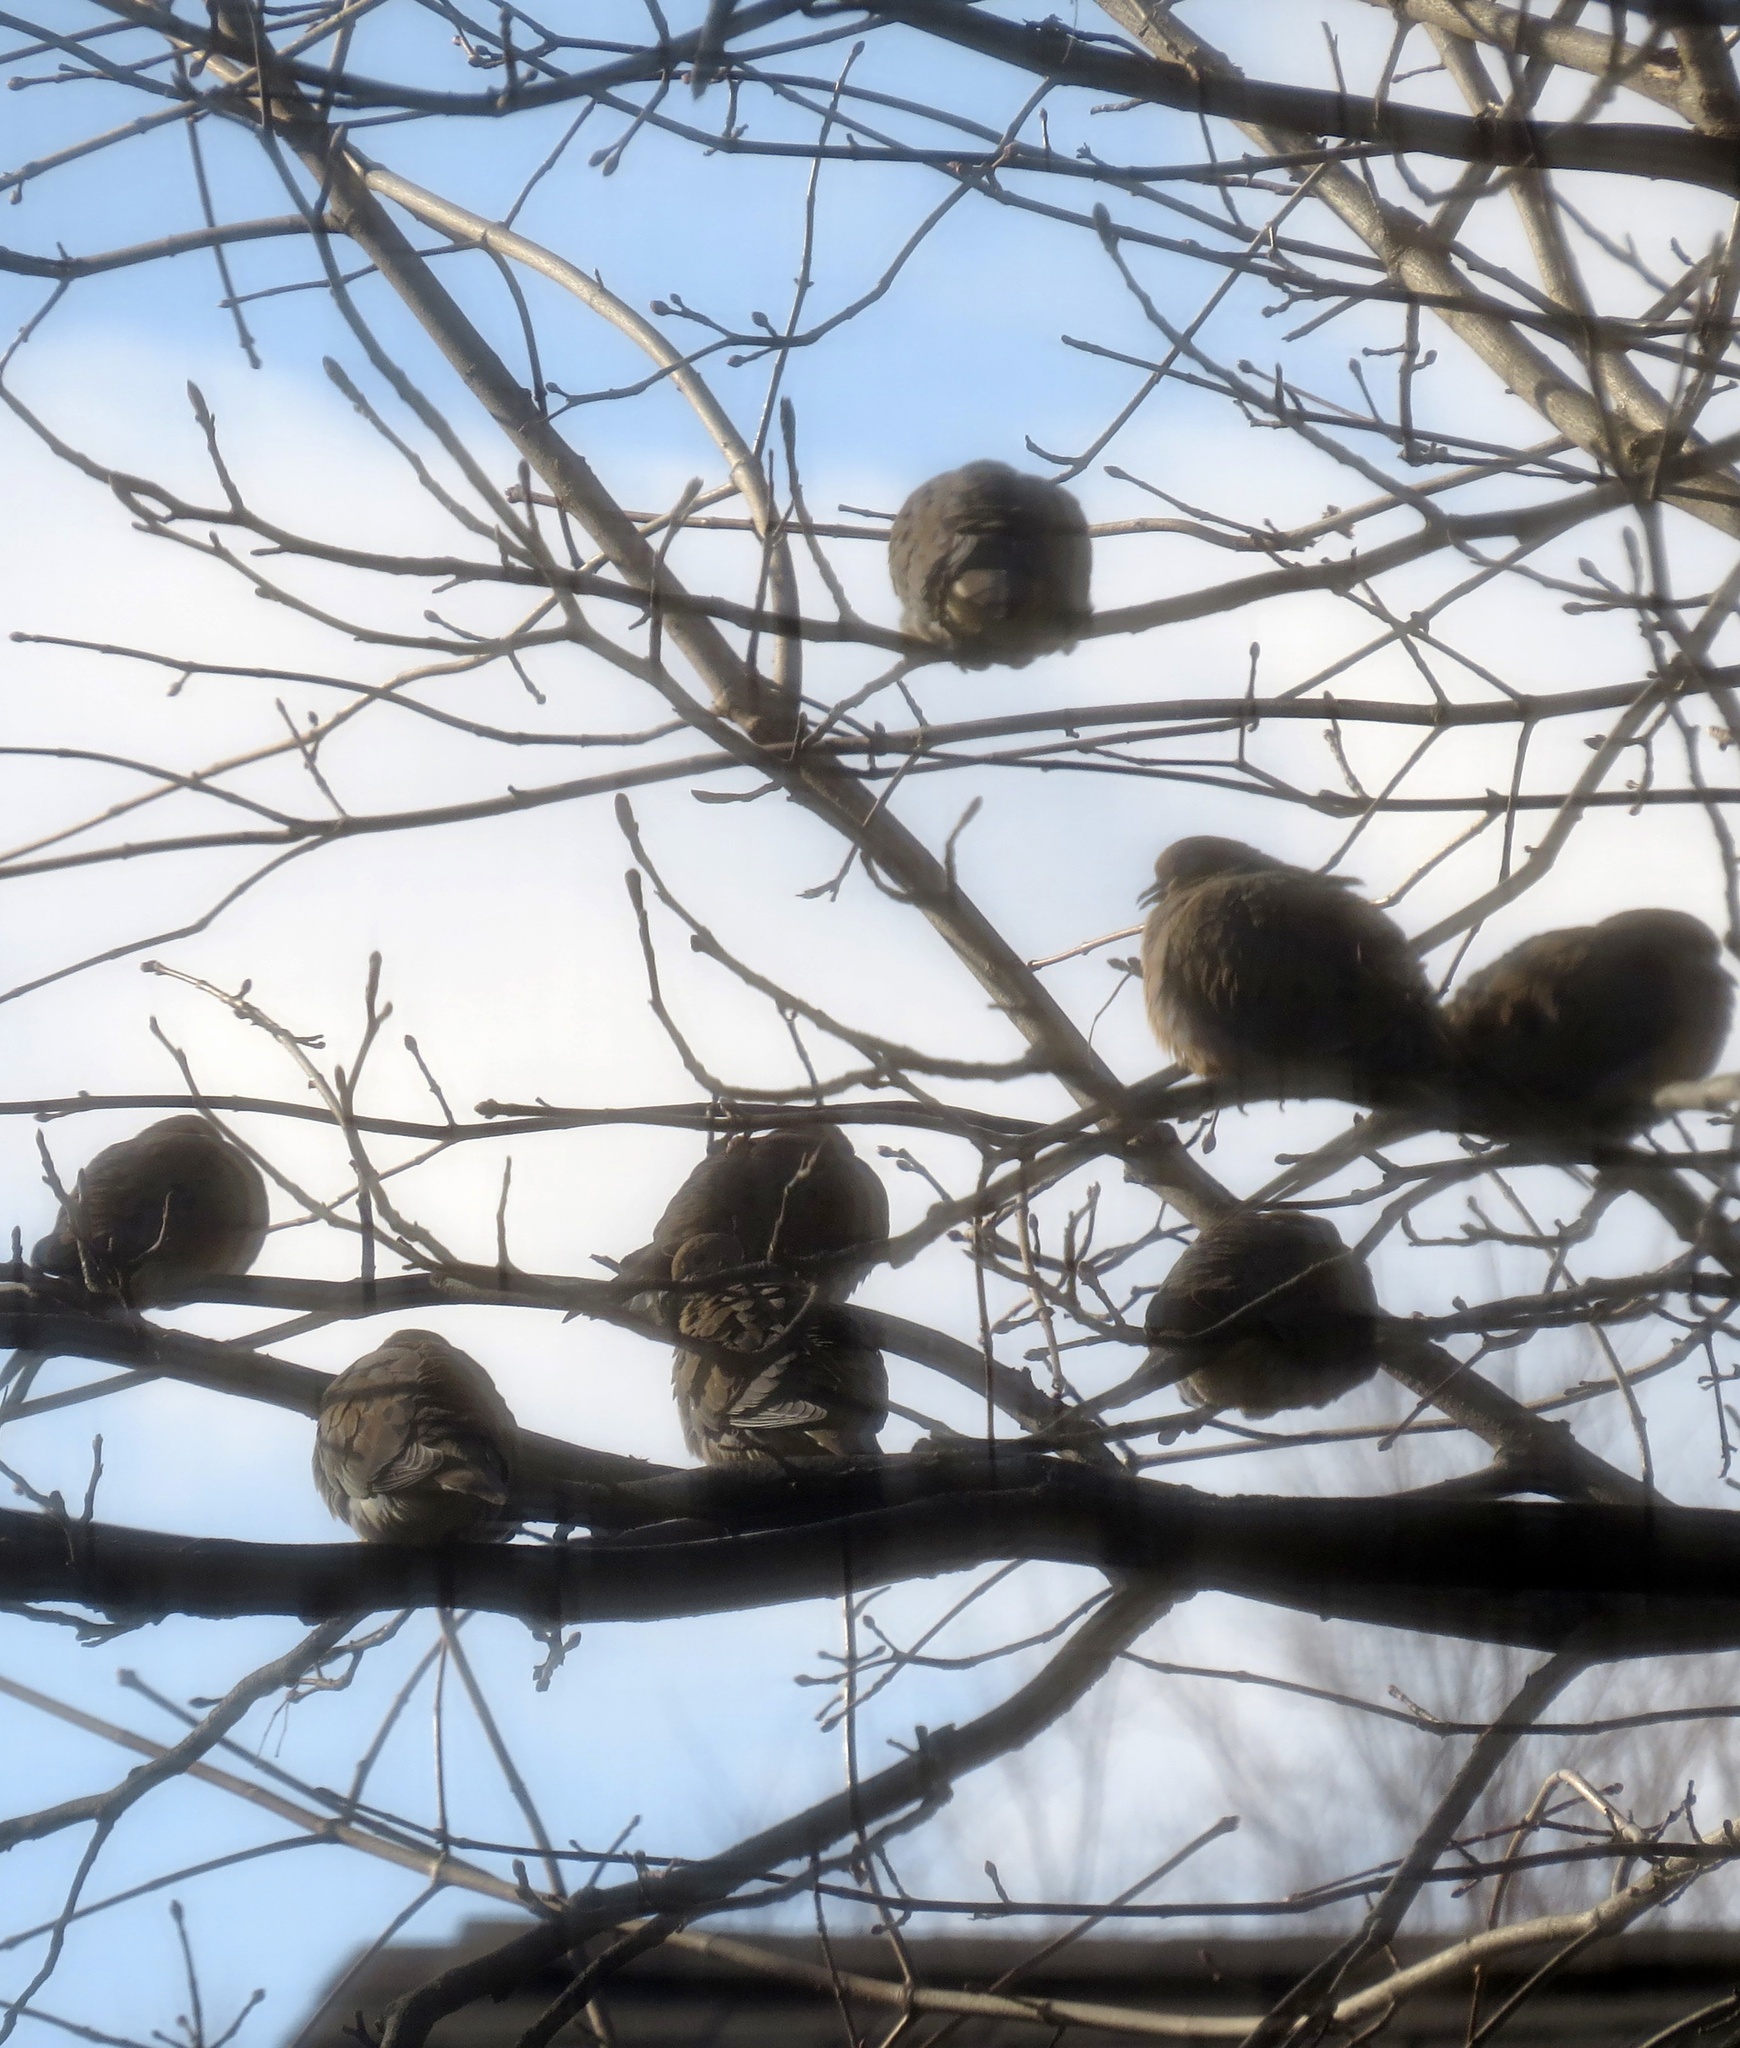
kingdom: Animalia
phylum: Chordata
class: Aves
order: Columbiformes
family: Columbidae
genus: Zenaida
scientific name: Zenaida macroura
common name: Mourning dove
